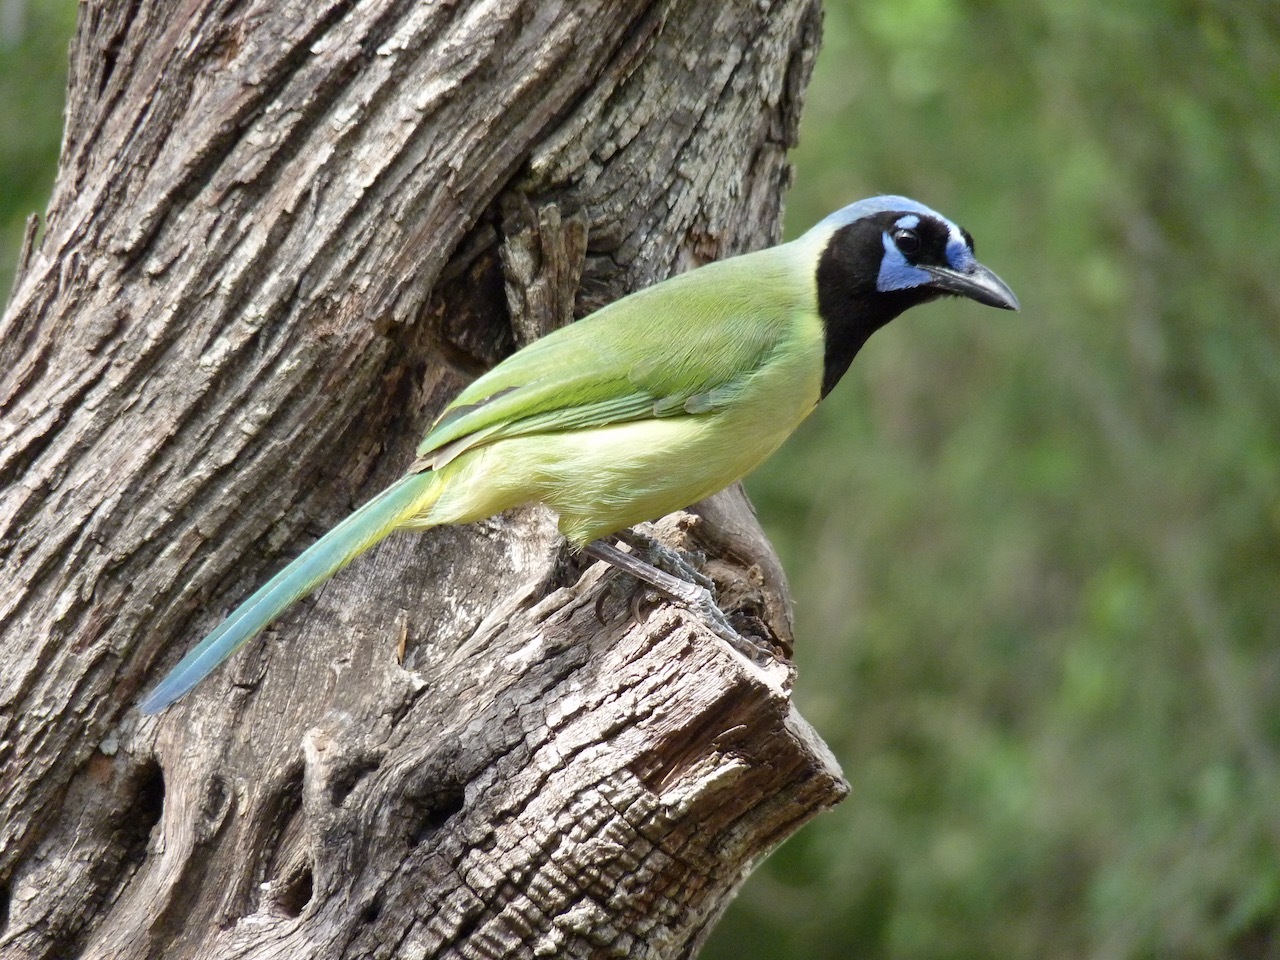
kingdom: Animalia
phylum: Chordata
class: Aves
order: Passeriformes
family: Corvidae
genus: Cyanocorax
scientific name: Cyanocorax yncas
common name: Green jay
